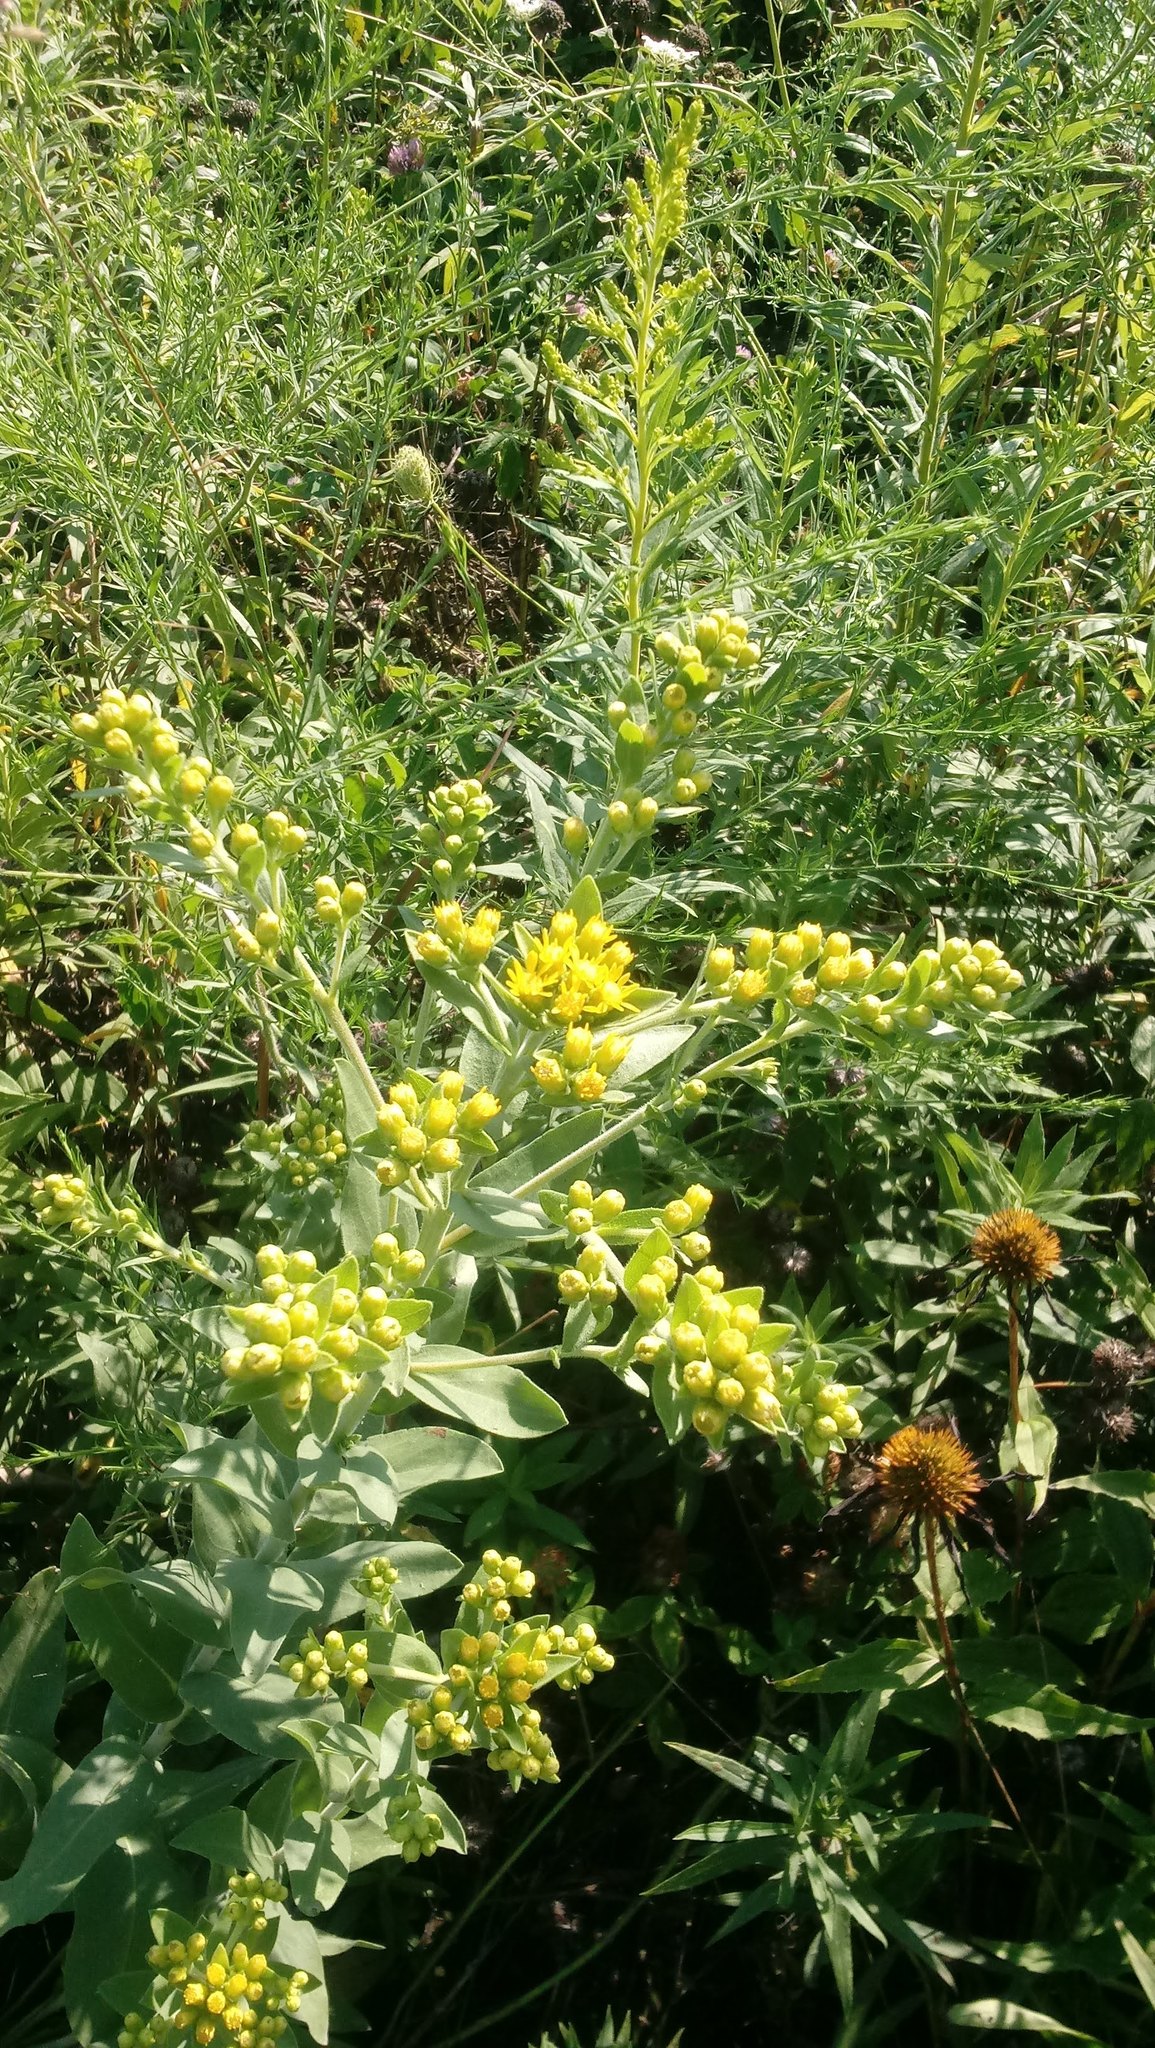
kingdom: Plantae
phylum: Tracheophyta
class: Magnoliopsida
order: Asterales
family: Asteraceae
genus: Solidago
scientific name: Solidago rigida
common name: Rigid goldenrod
